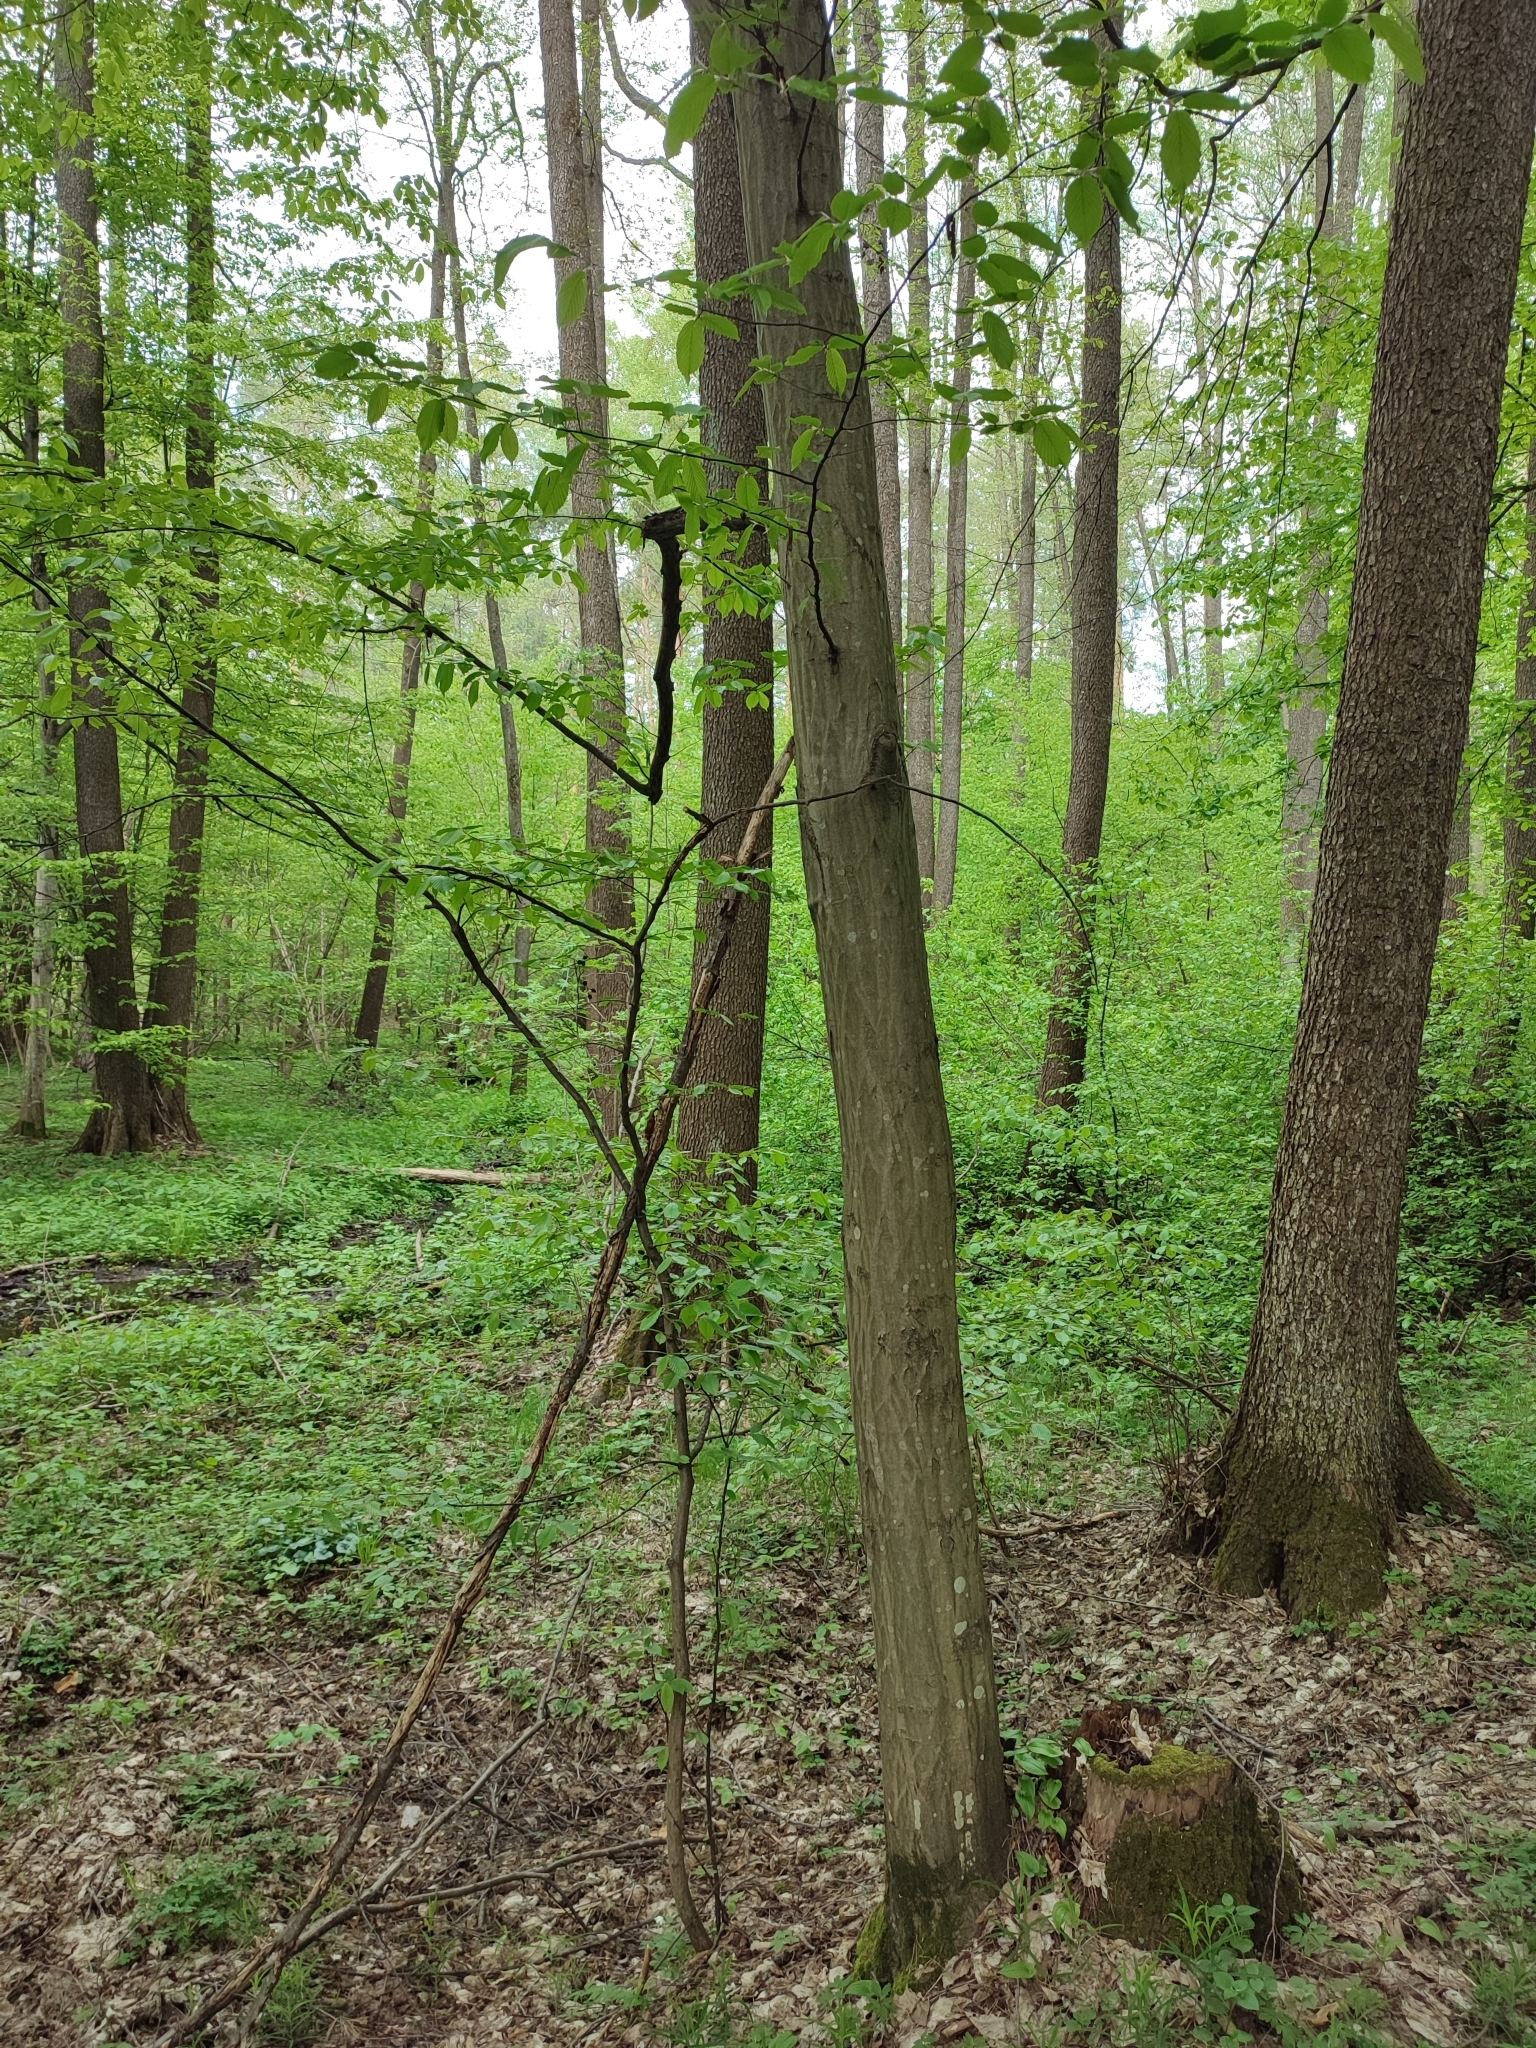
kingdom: Plantae
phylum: Tracheophyta
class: Magnoliopsida
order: Fagales
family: Betulaceae
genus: Carpinus
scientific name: Carpinus betulus
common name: Hornbeam
